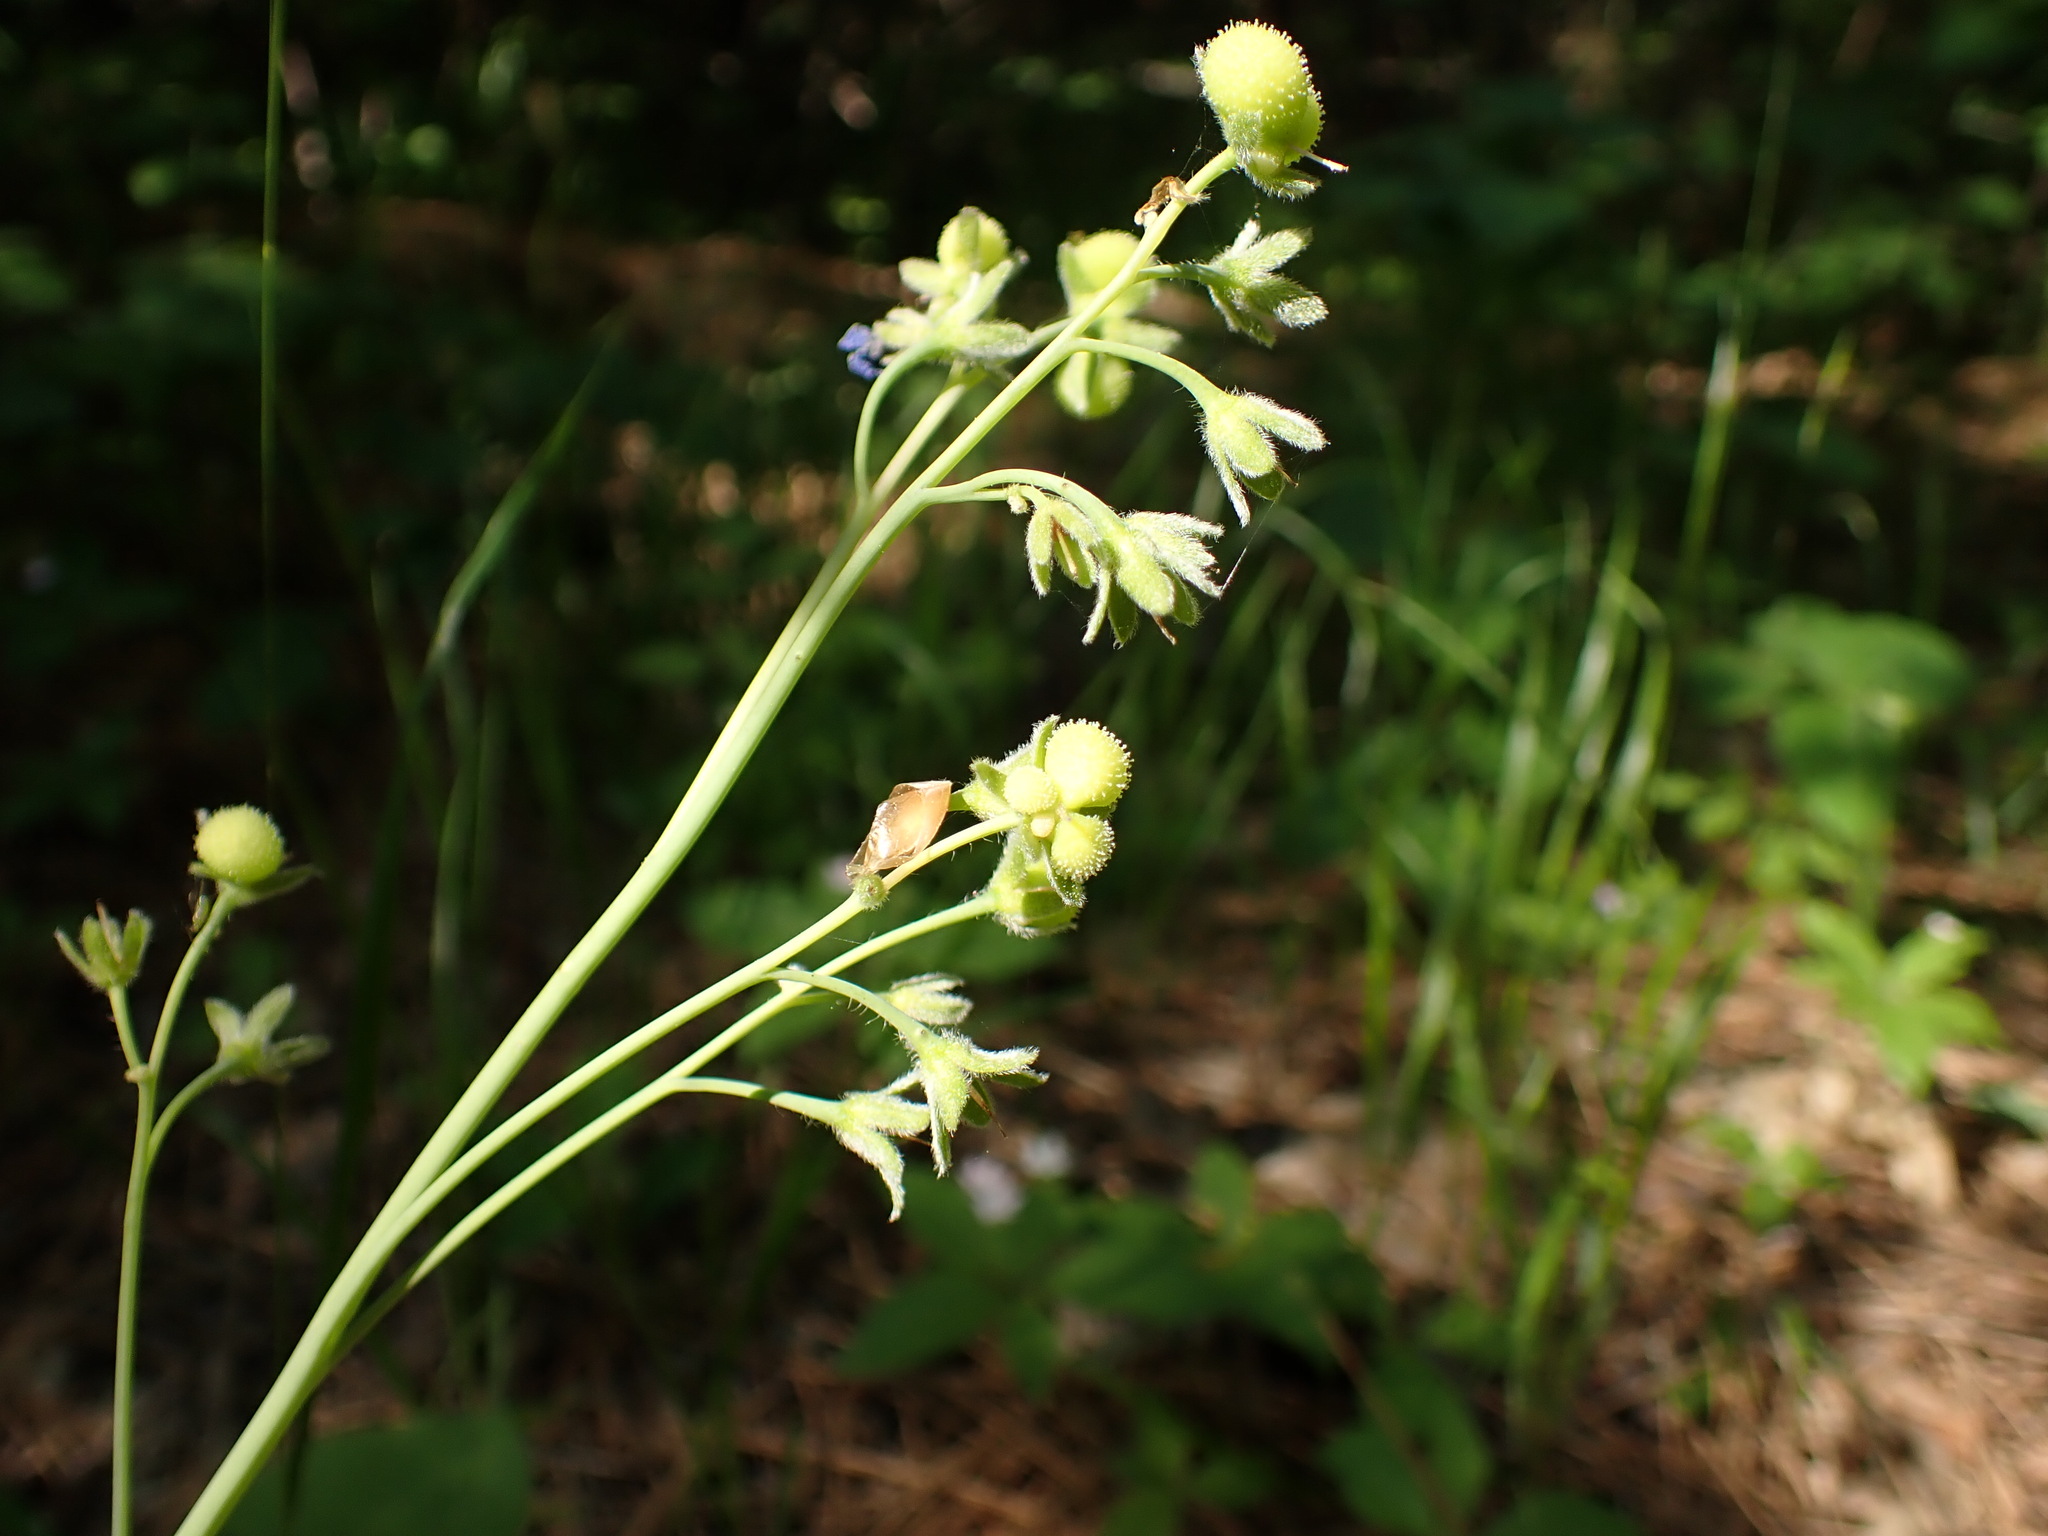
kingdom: Plantae
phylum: Tracheophyta
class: Magnoliopsida
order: Boraginales
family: Boraginaceae
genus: Adelinia
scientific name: Adelinia grande
